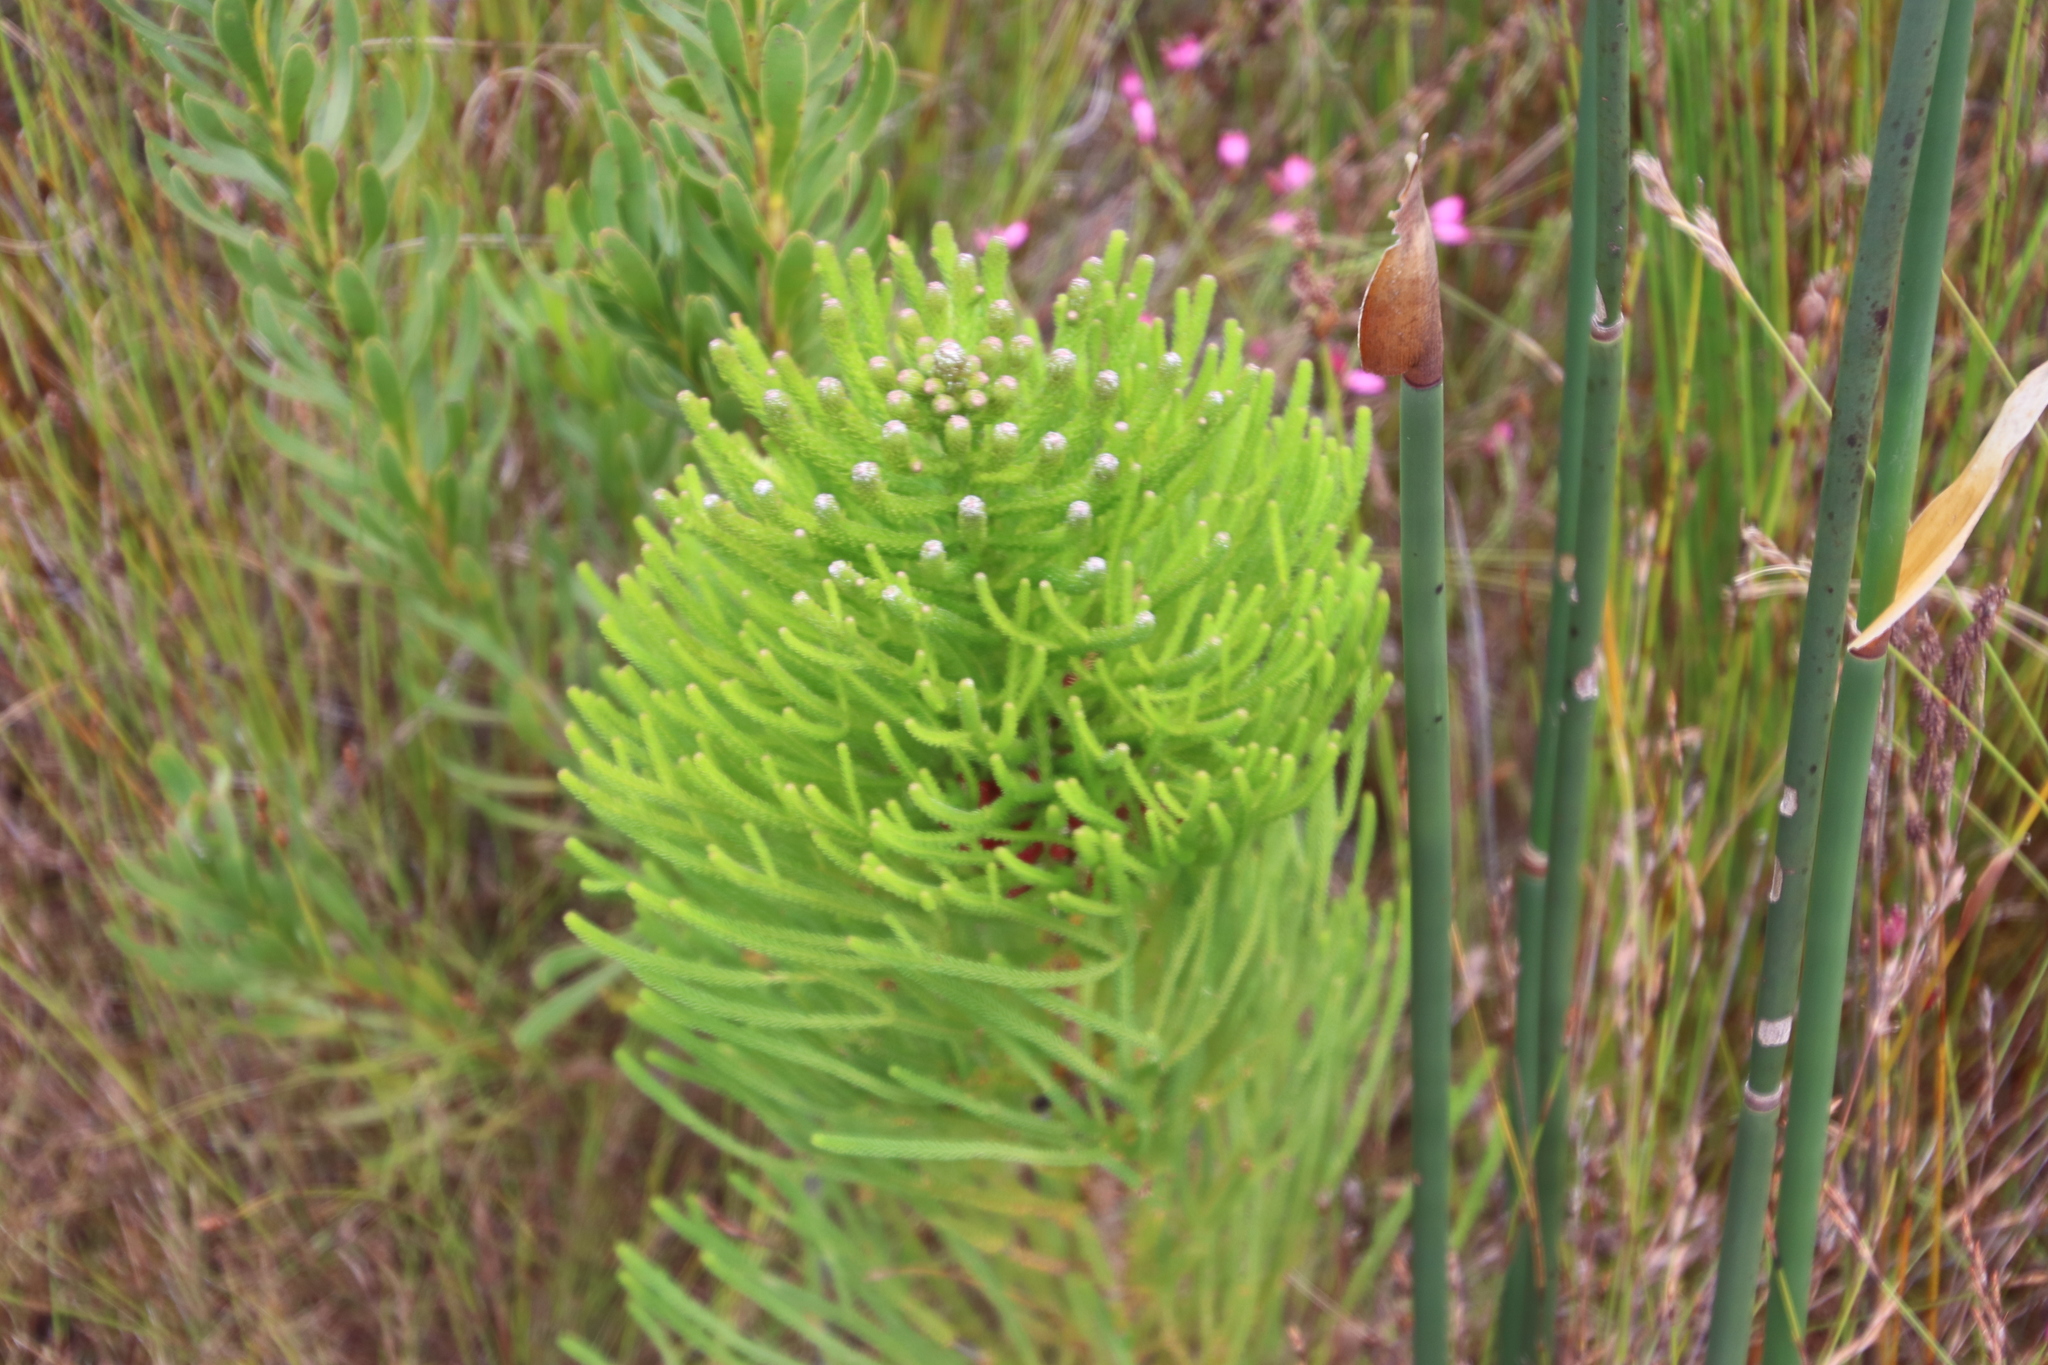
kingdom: Plantae
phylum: Tracheophyta
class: Magnoliopsida
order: Bruniales
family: Bruniaceae
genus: Berzelia
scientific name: Berzelia alopecurioides
